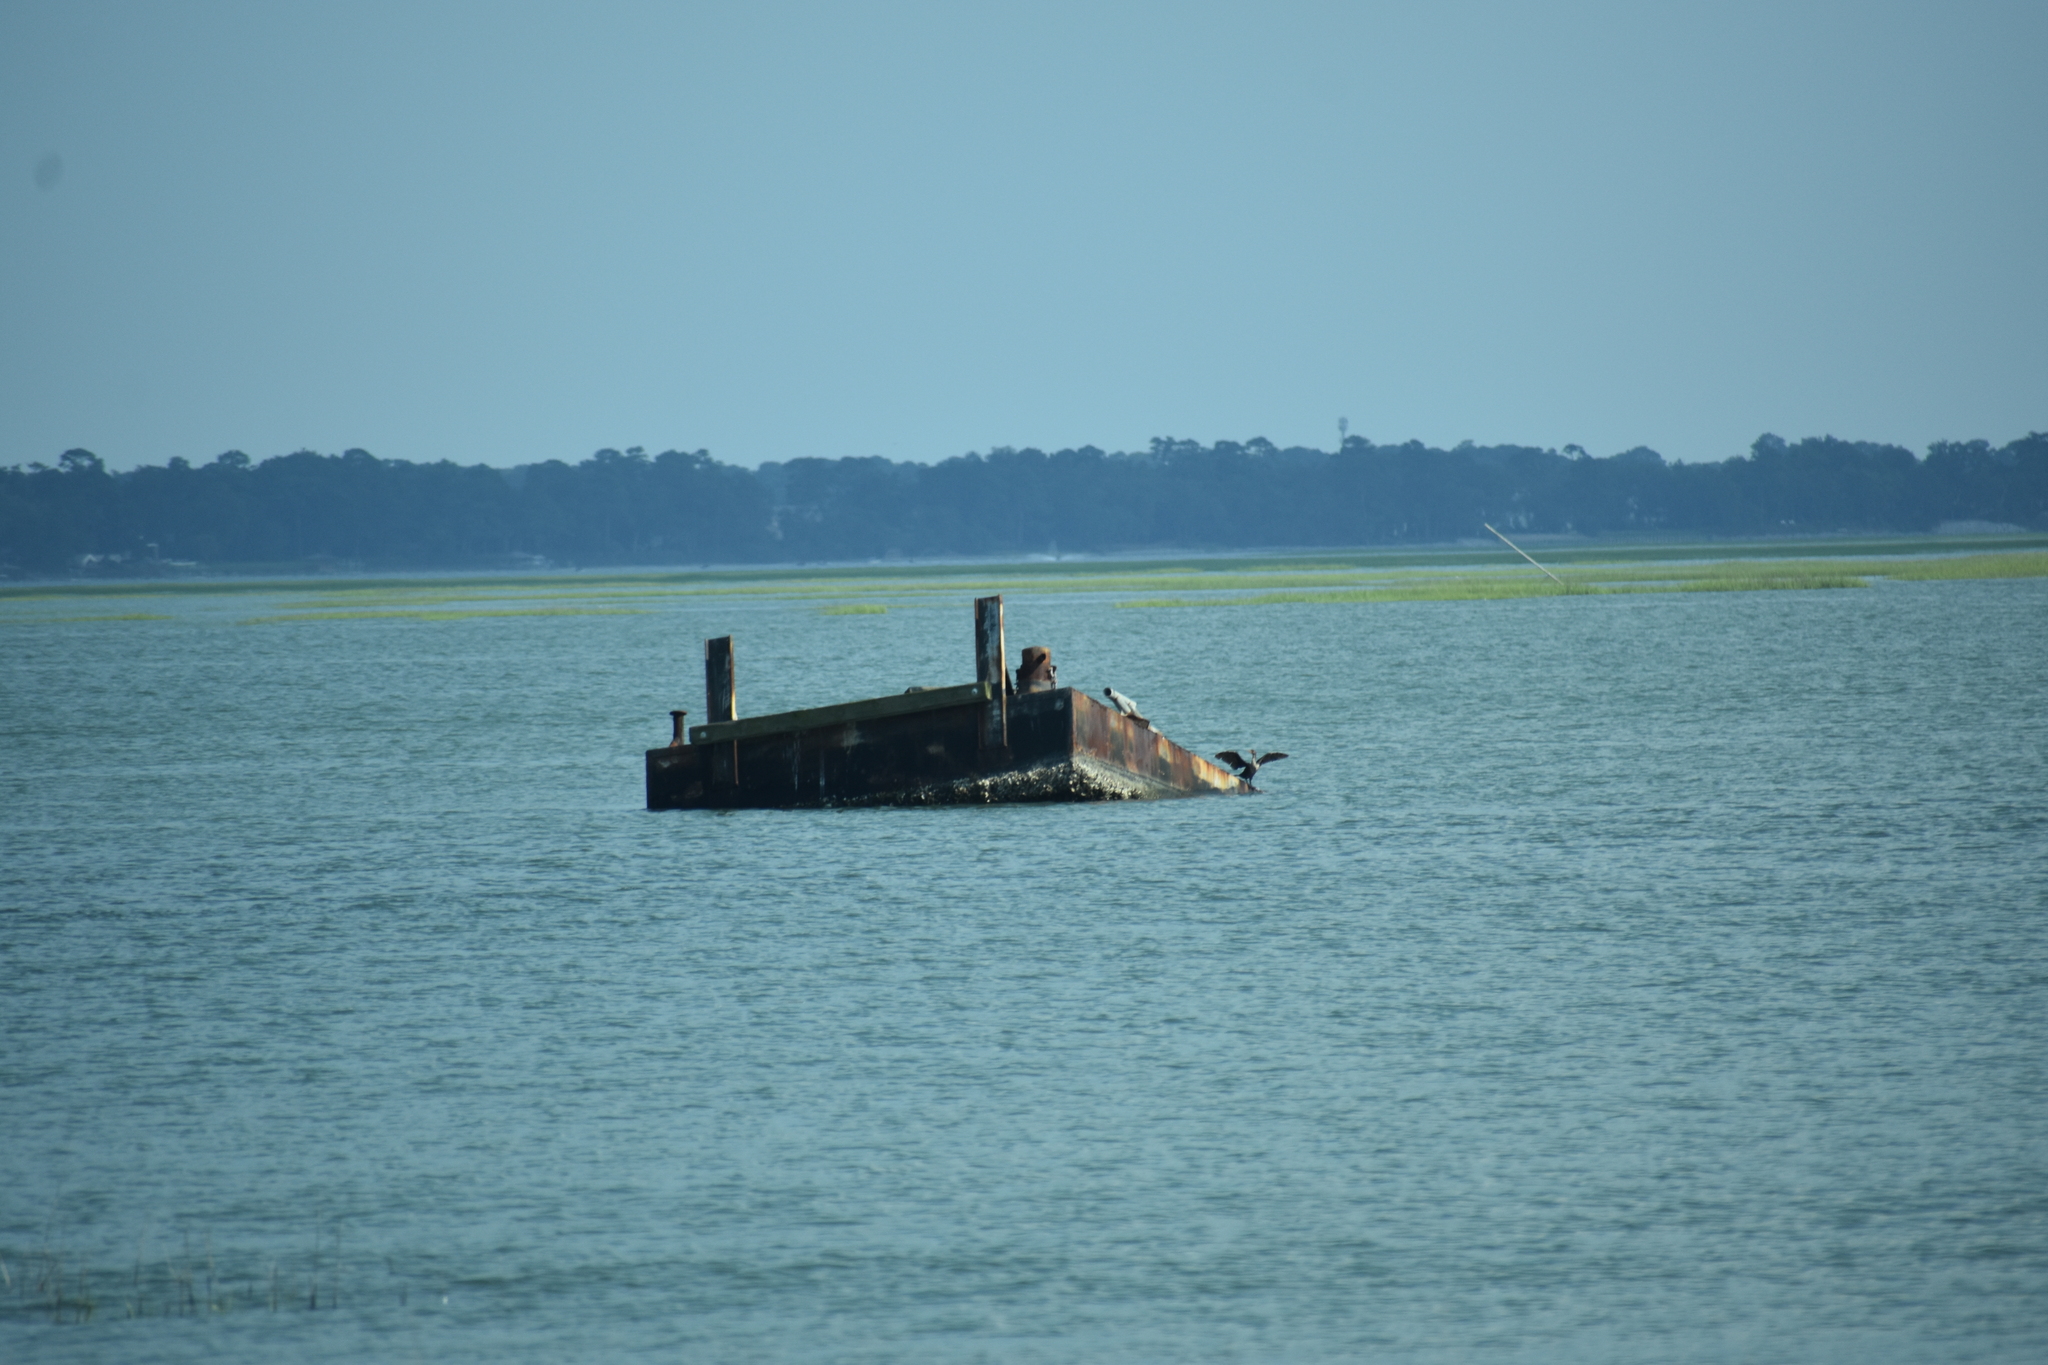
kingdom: Animalia
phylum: Chordata
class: Aves
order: Suliformes
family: Phalacrocoracidae
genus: Phalacrocorax
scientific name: Phalacrocorax auritus
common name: Double-crested cormorant
